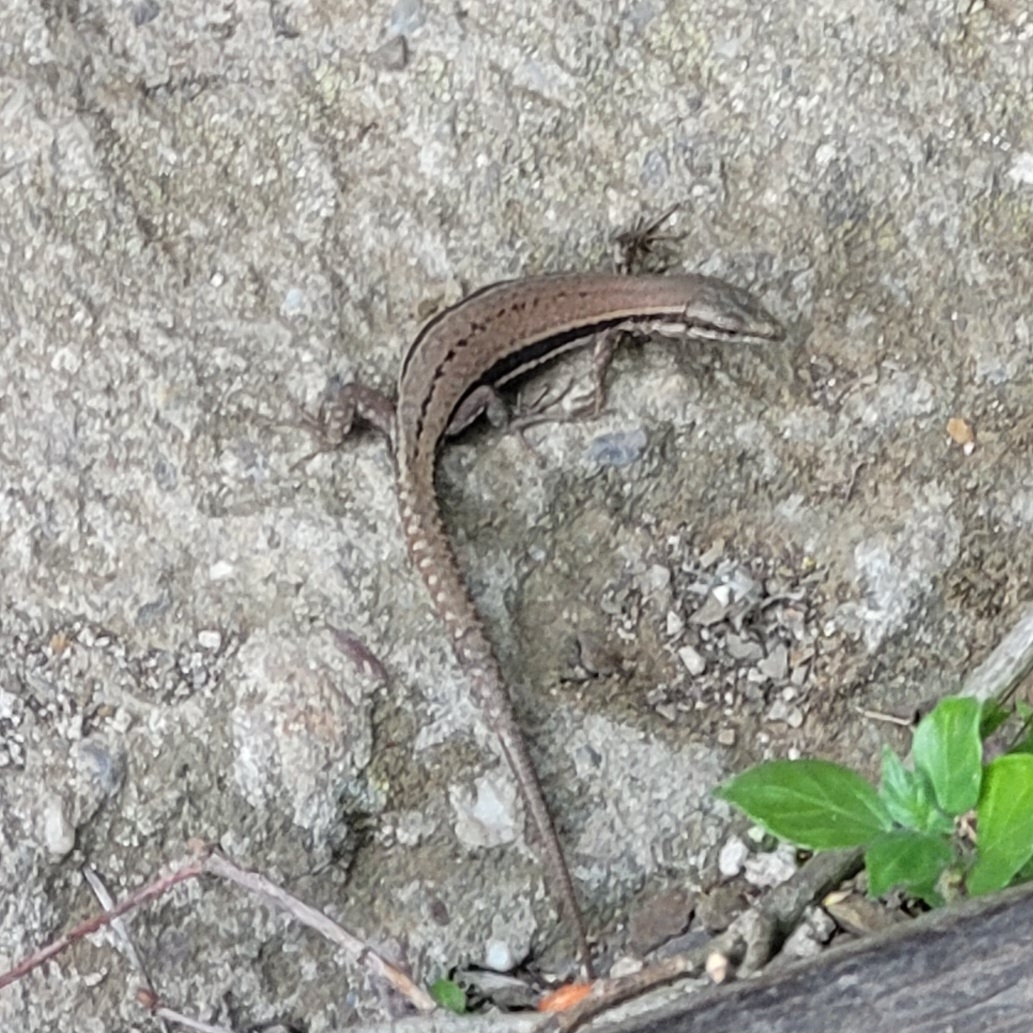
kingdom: Animalia
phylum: Chordata
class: Squamata
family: Lacertidae
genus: Podarcis
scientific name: Podarcis muralis
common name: Common wall lizard
